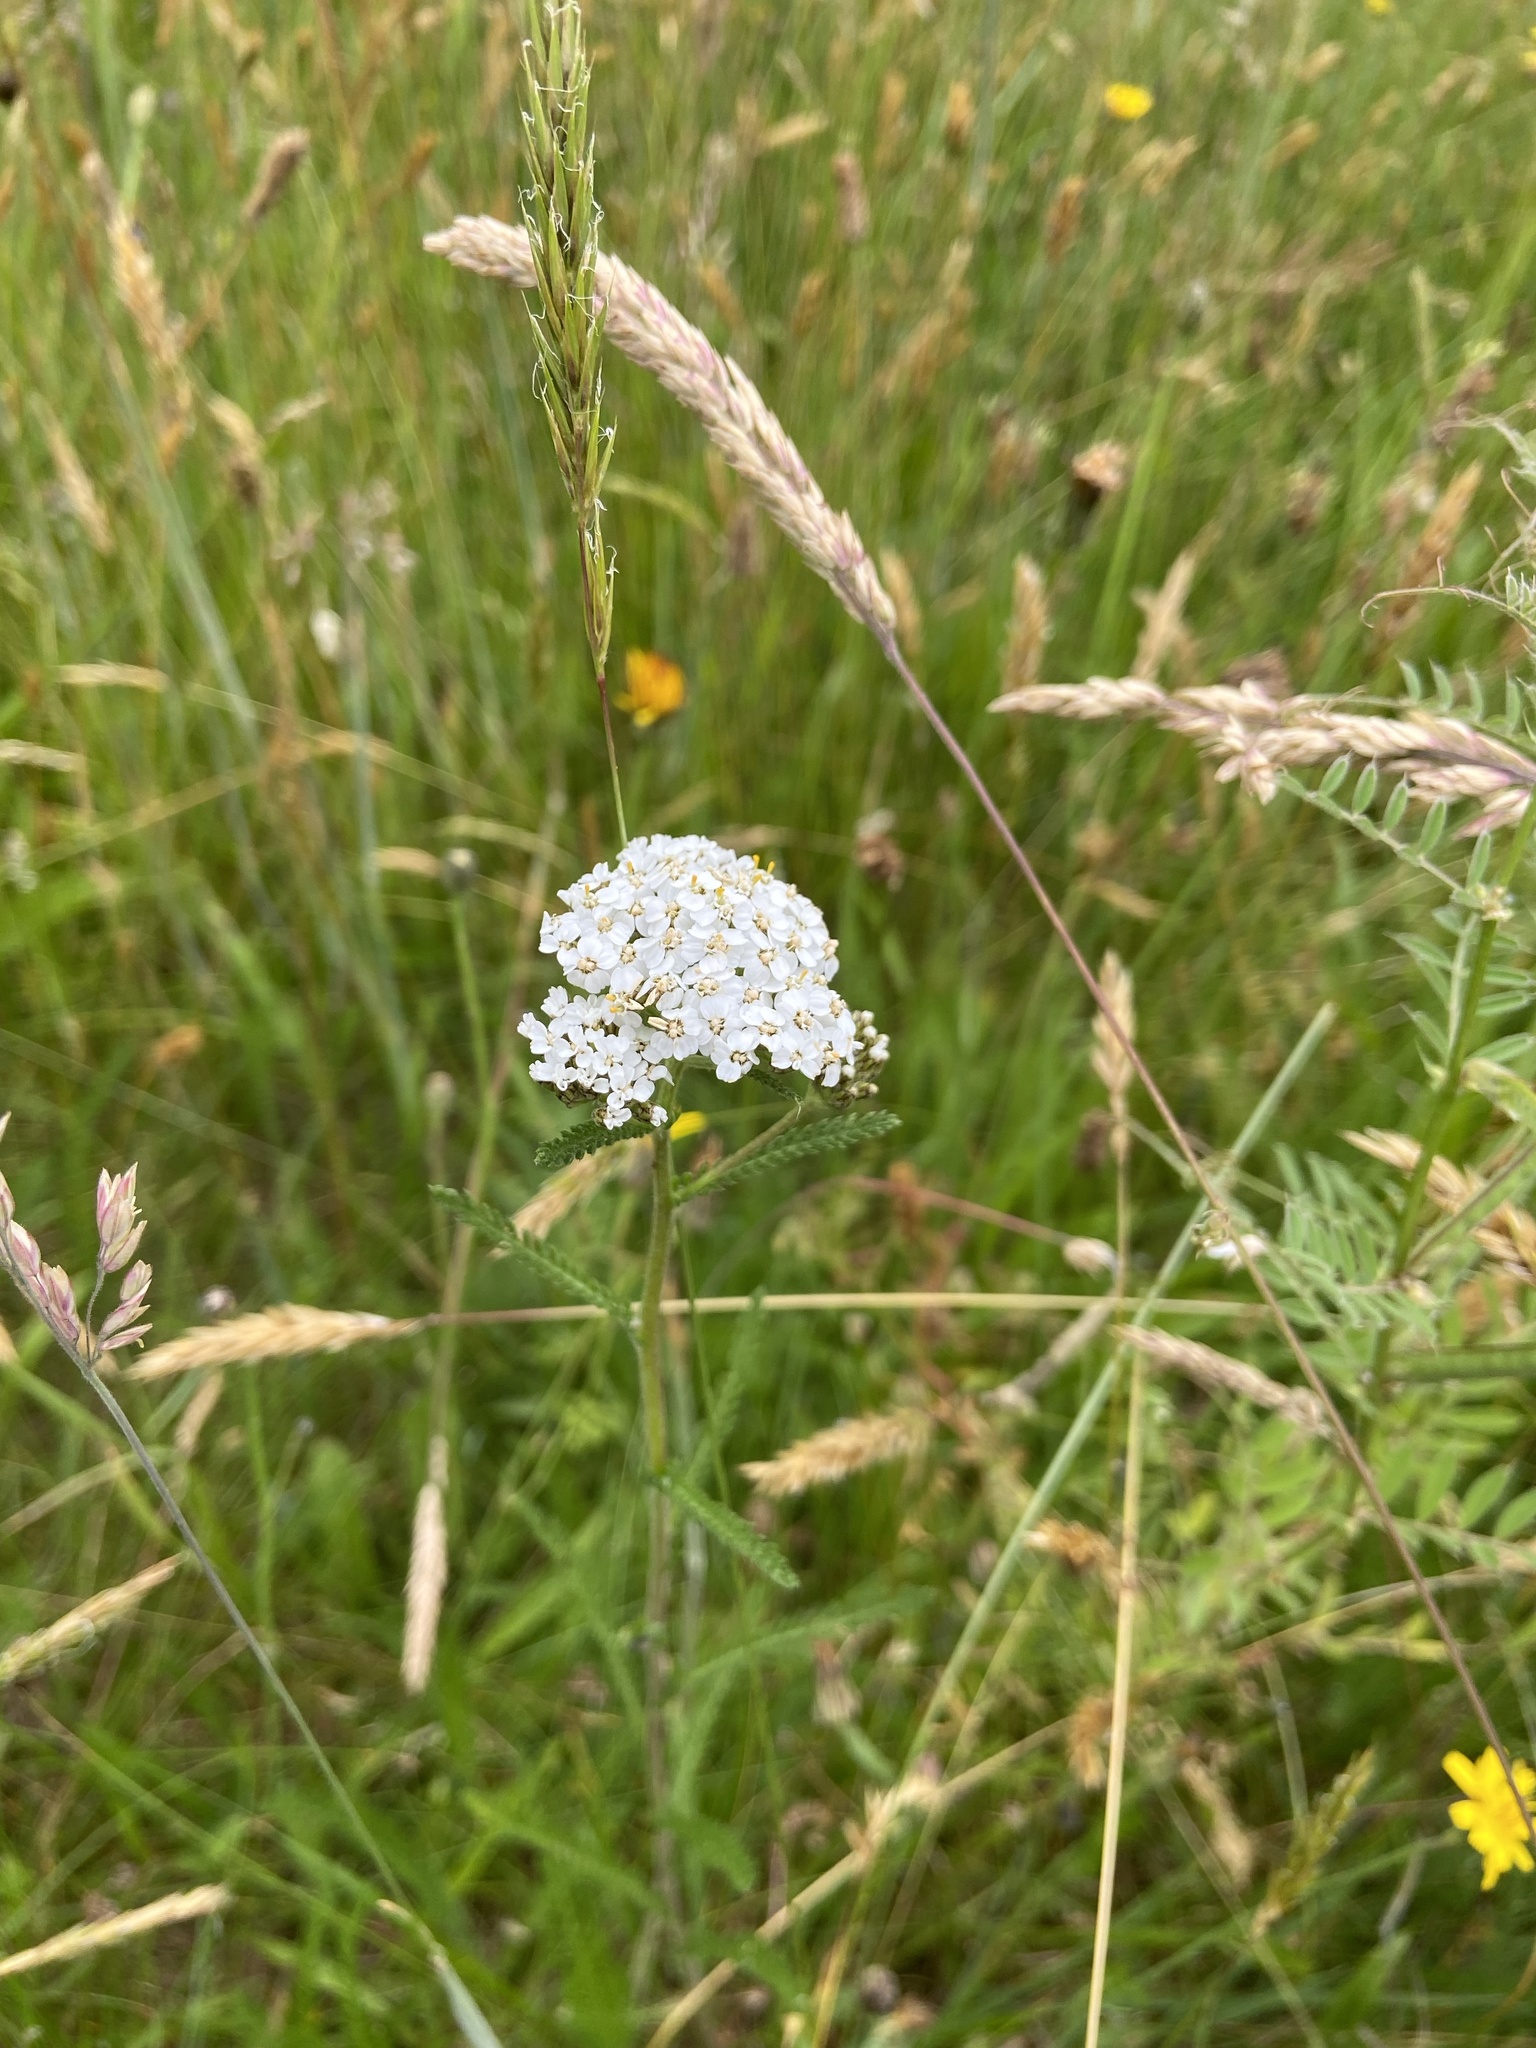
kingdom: Plantae
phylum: Tracheophyta
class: Magnoliopsida
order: Asterales
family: Asteraceae
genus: Achillea
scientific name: Achillea millefolium
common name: Yarrow
